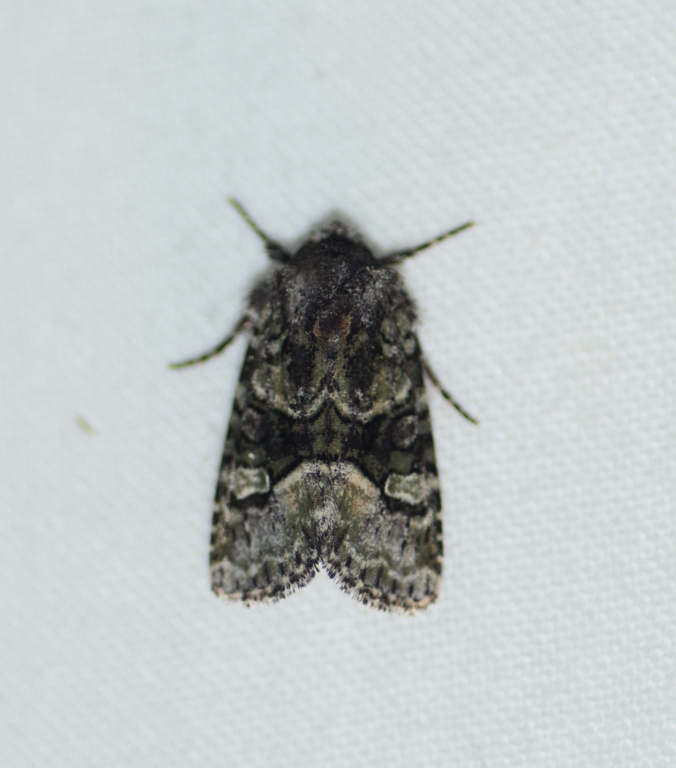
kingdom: Animalia
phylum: Arthropoda
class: Insecta
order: Lepidoptera
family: Noctuidae
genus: Lacinipolia
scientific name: Lacinipolia olivacea
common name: Olive arches moth
